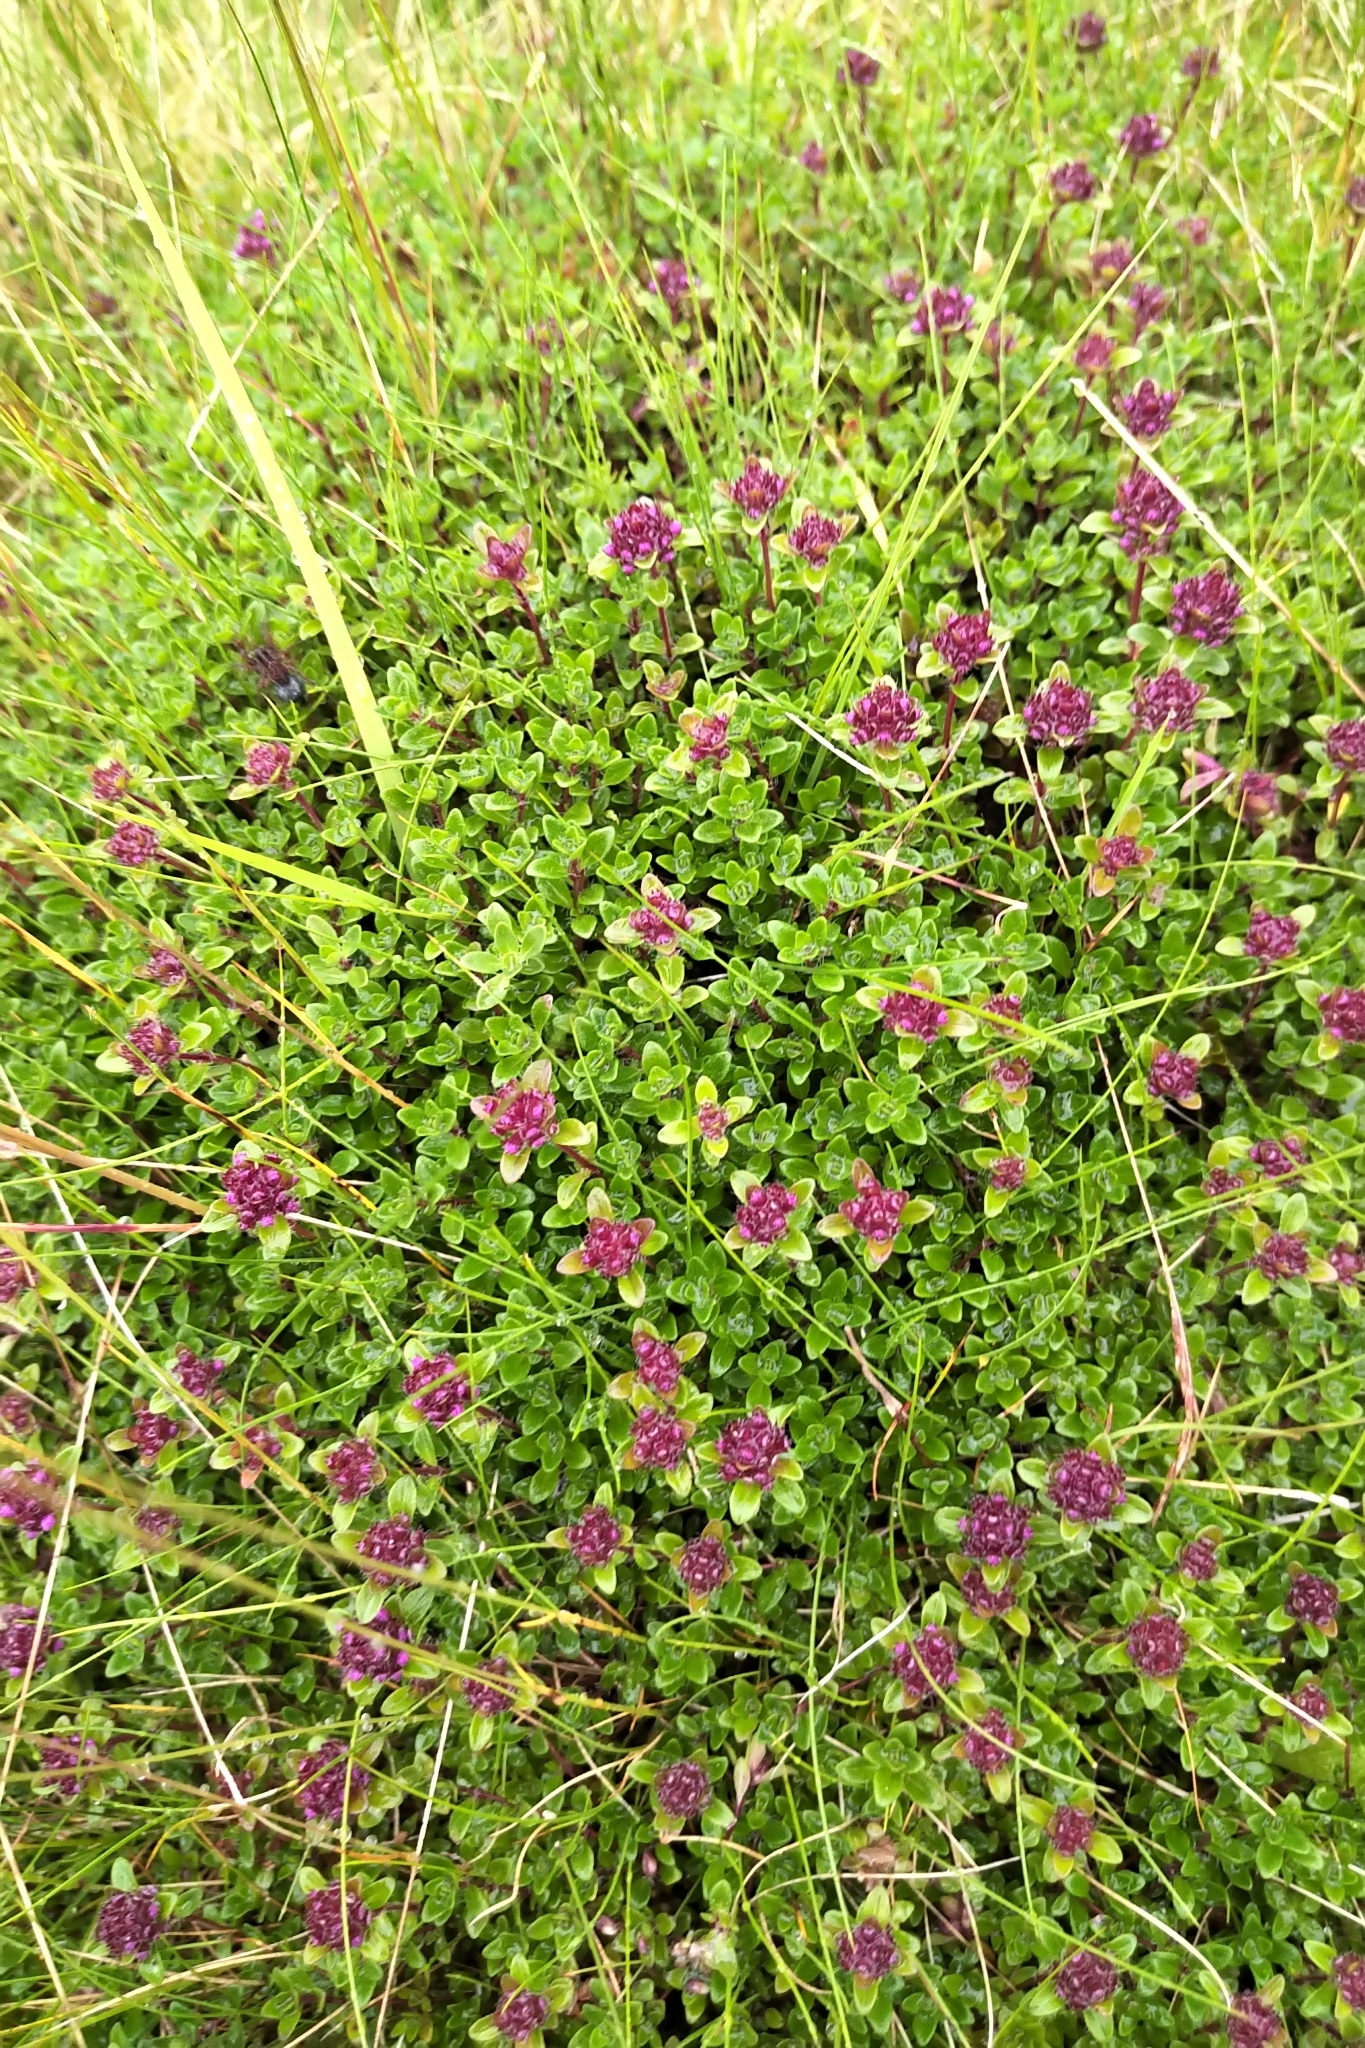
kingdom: Plantae
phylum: Tracheophyta
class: Magnoliopsida
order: Lamiales
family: Lamiaceae
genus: Thymus
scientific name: Thymus praecox
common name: Wild thyme
